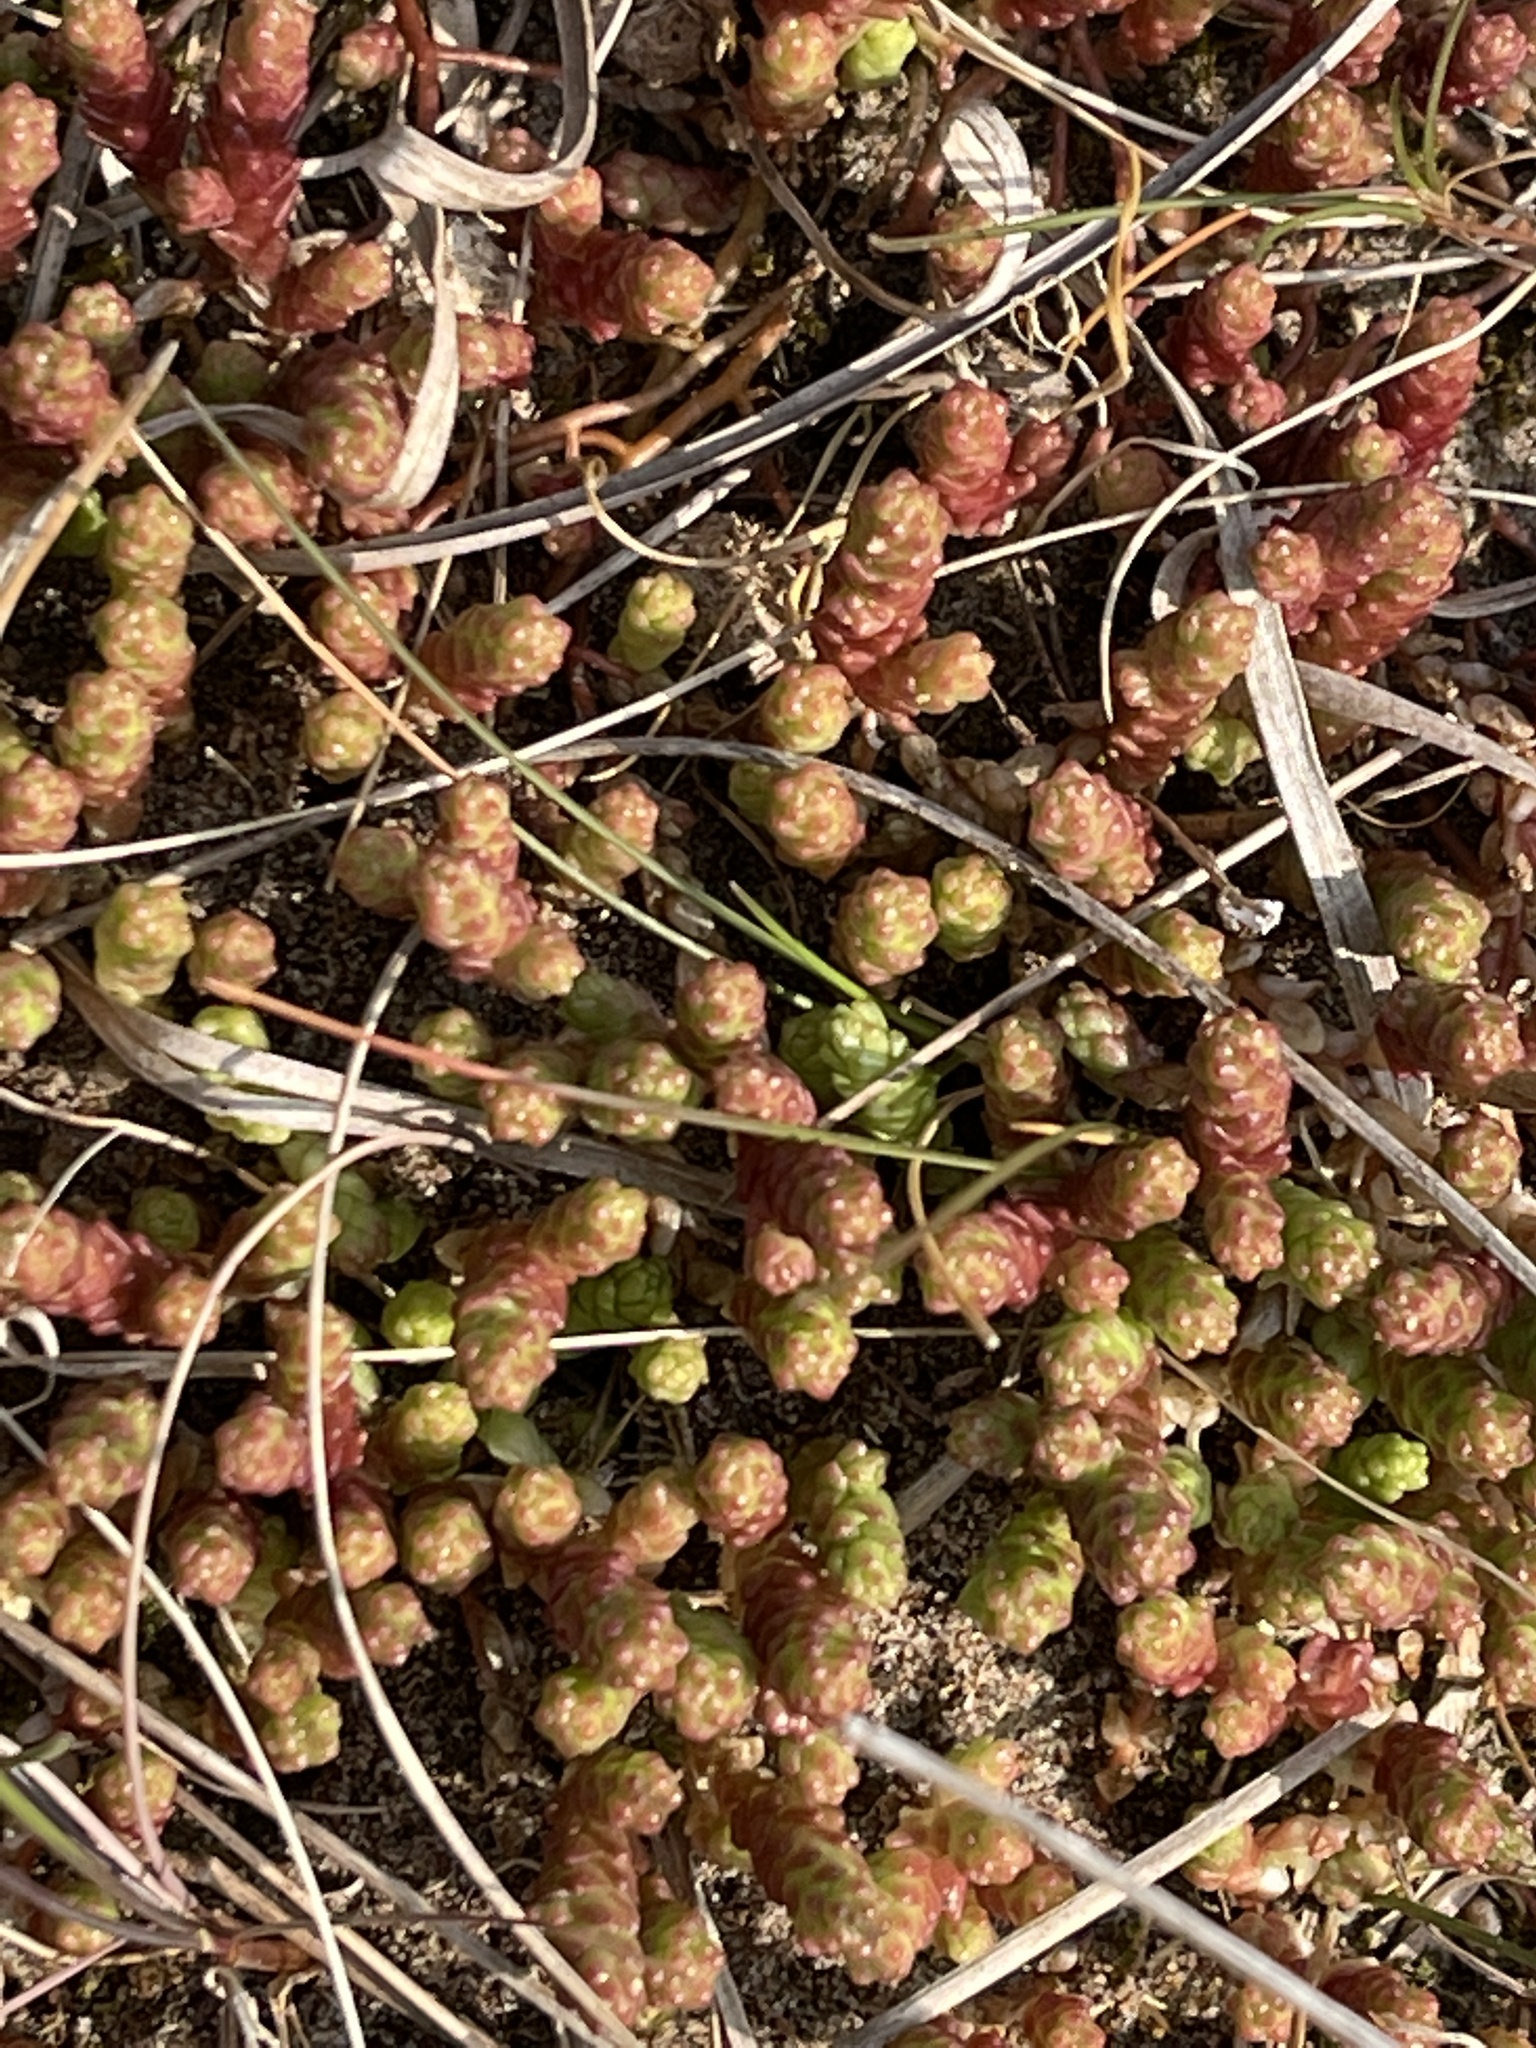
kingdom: Plantae
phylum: Tracheophyta
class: Magnoliopsida
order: Saxifragales
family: Crassulaceae
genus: Sedum
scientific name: Sedum acre
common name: Biting stonecrop
